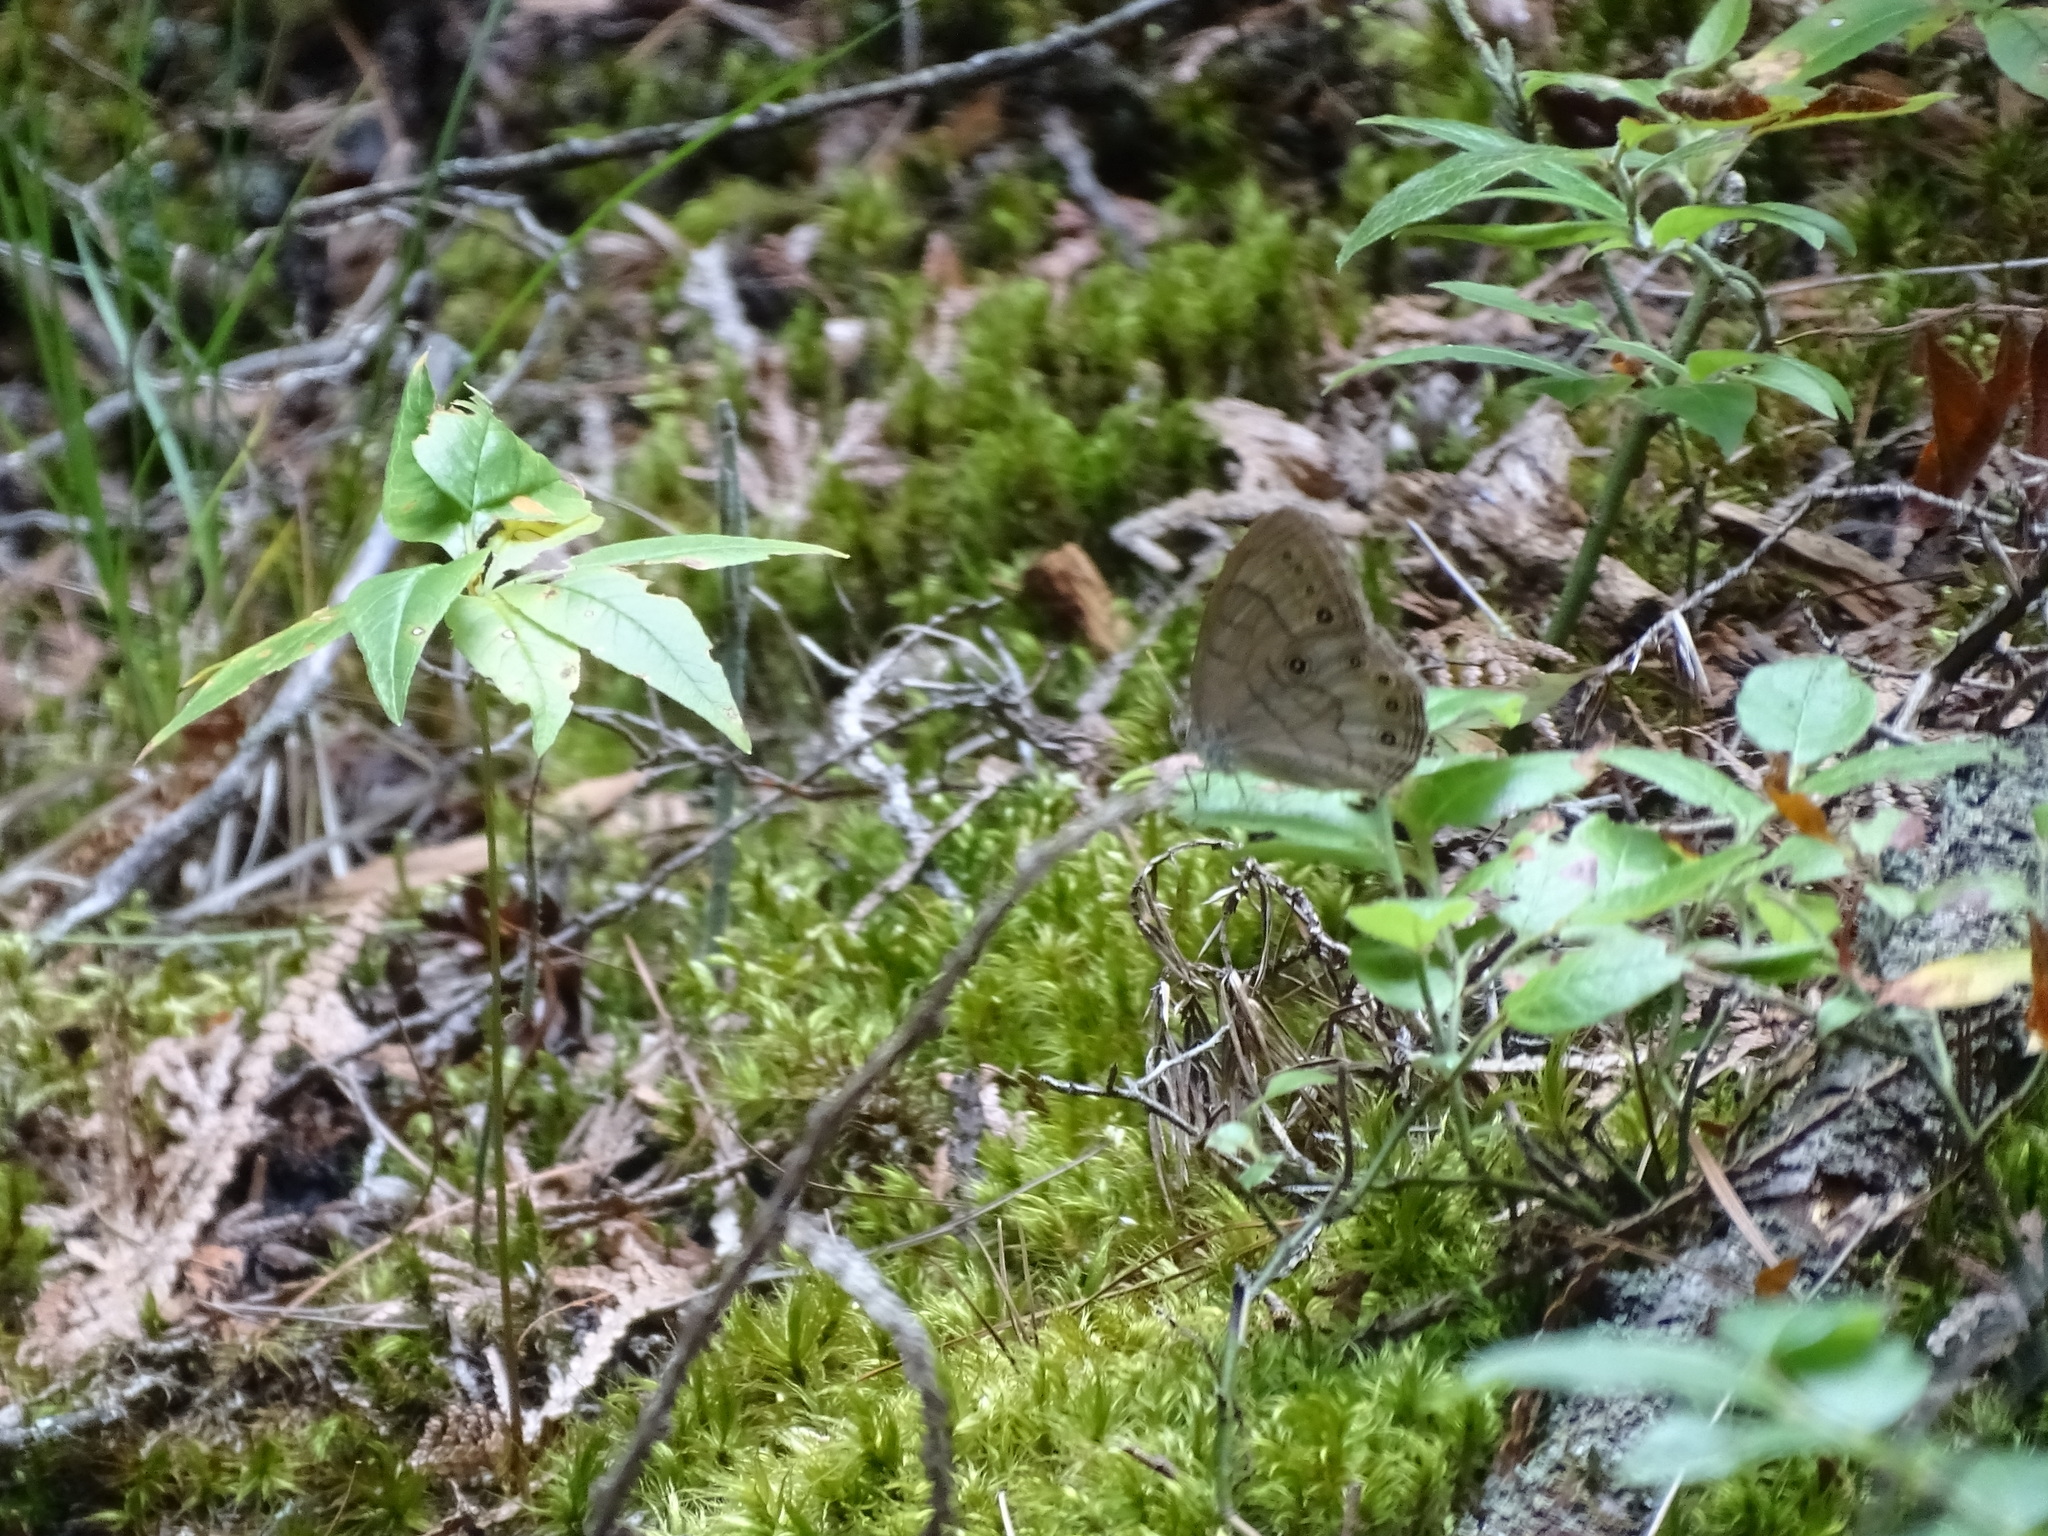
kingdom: Animalia
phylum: Arthropoda
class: Insecta
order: Lepidoptera
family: Nymphalidae
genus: Lethe
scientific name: Lethe eurydice
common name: Eyed brown
